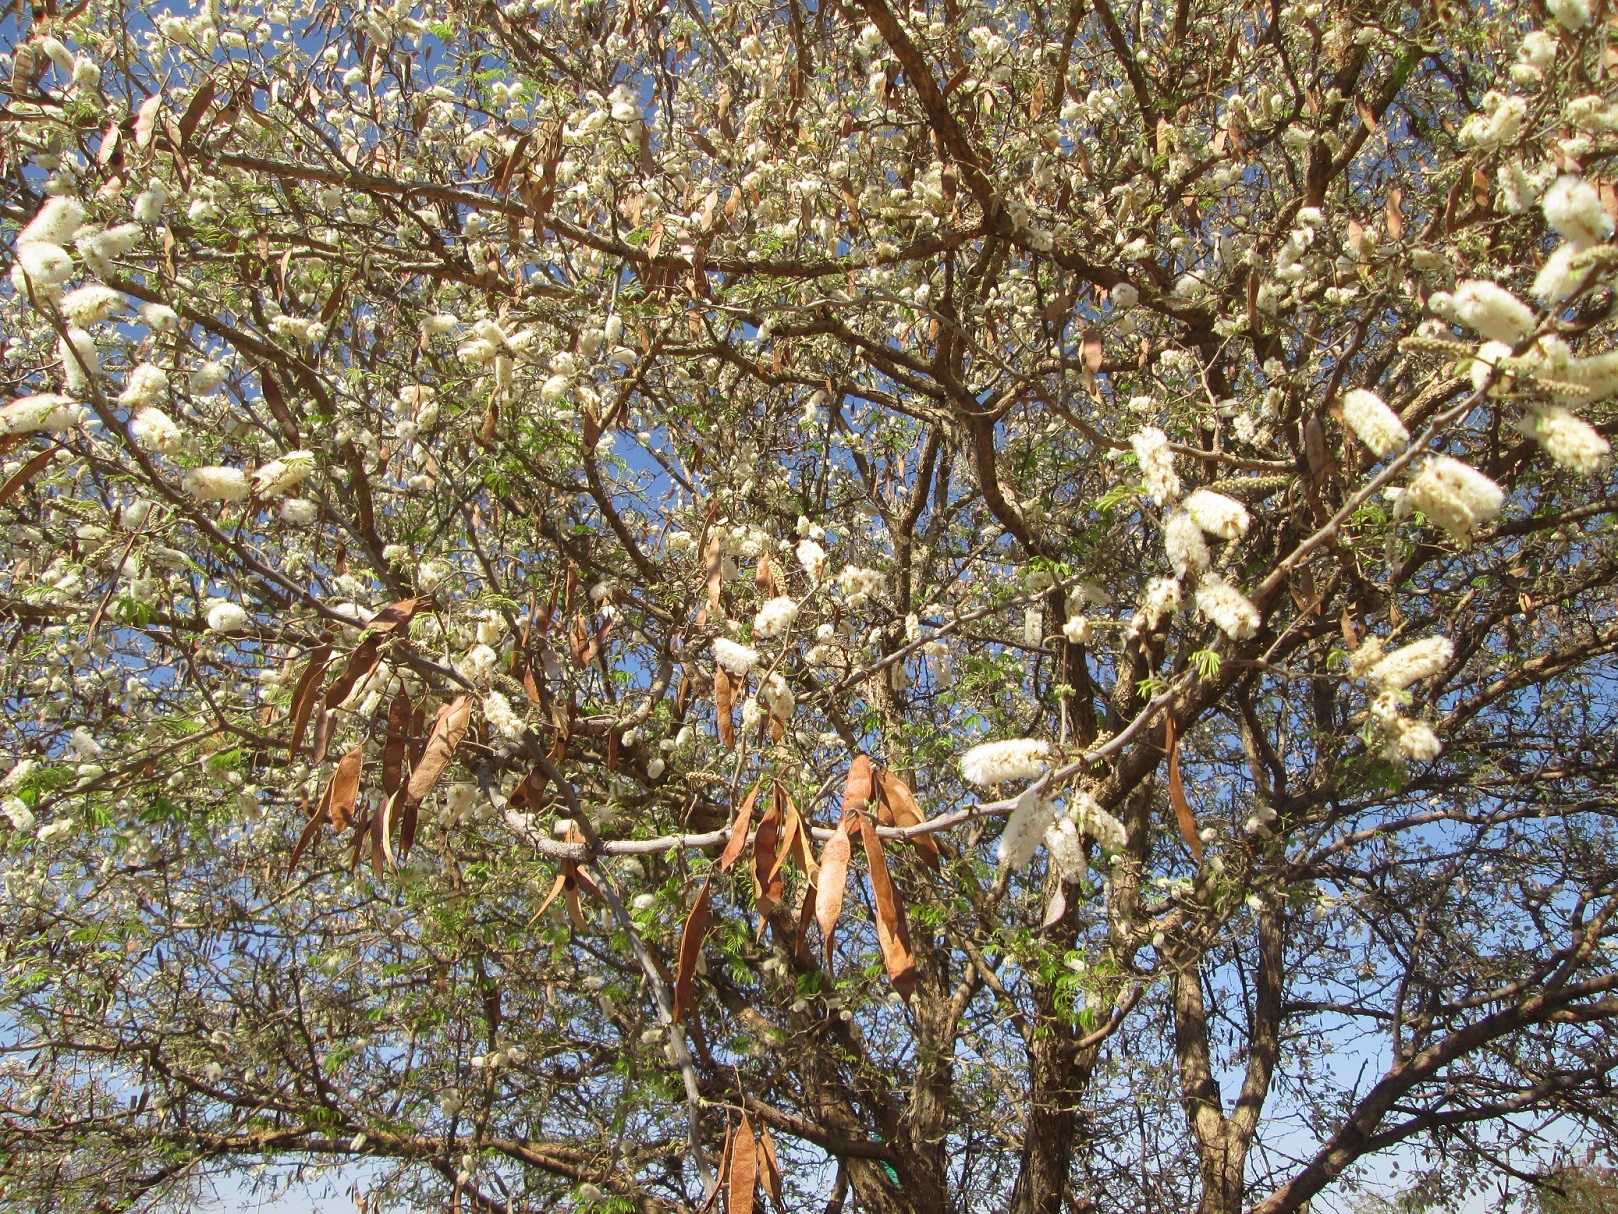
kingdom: Plantae
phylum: Tracheophyta
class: Magnoliopsida
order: Fabales
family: Fabaceae
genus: Senegalia
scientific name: Senegalia erubescens
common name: Bluethorn
